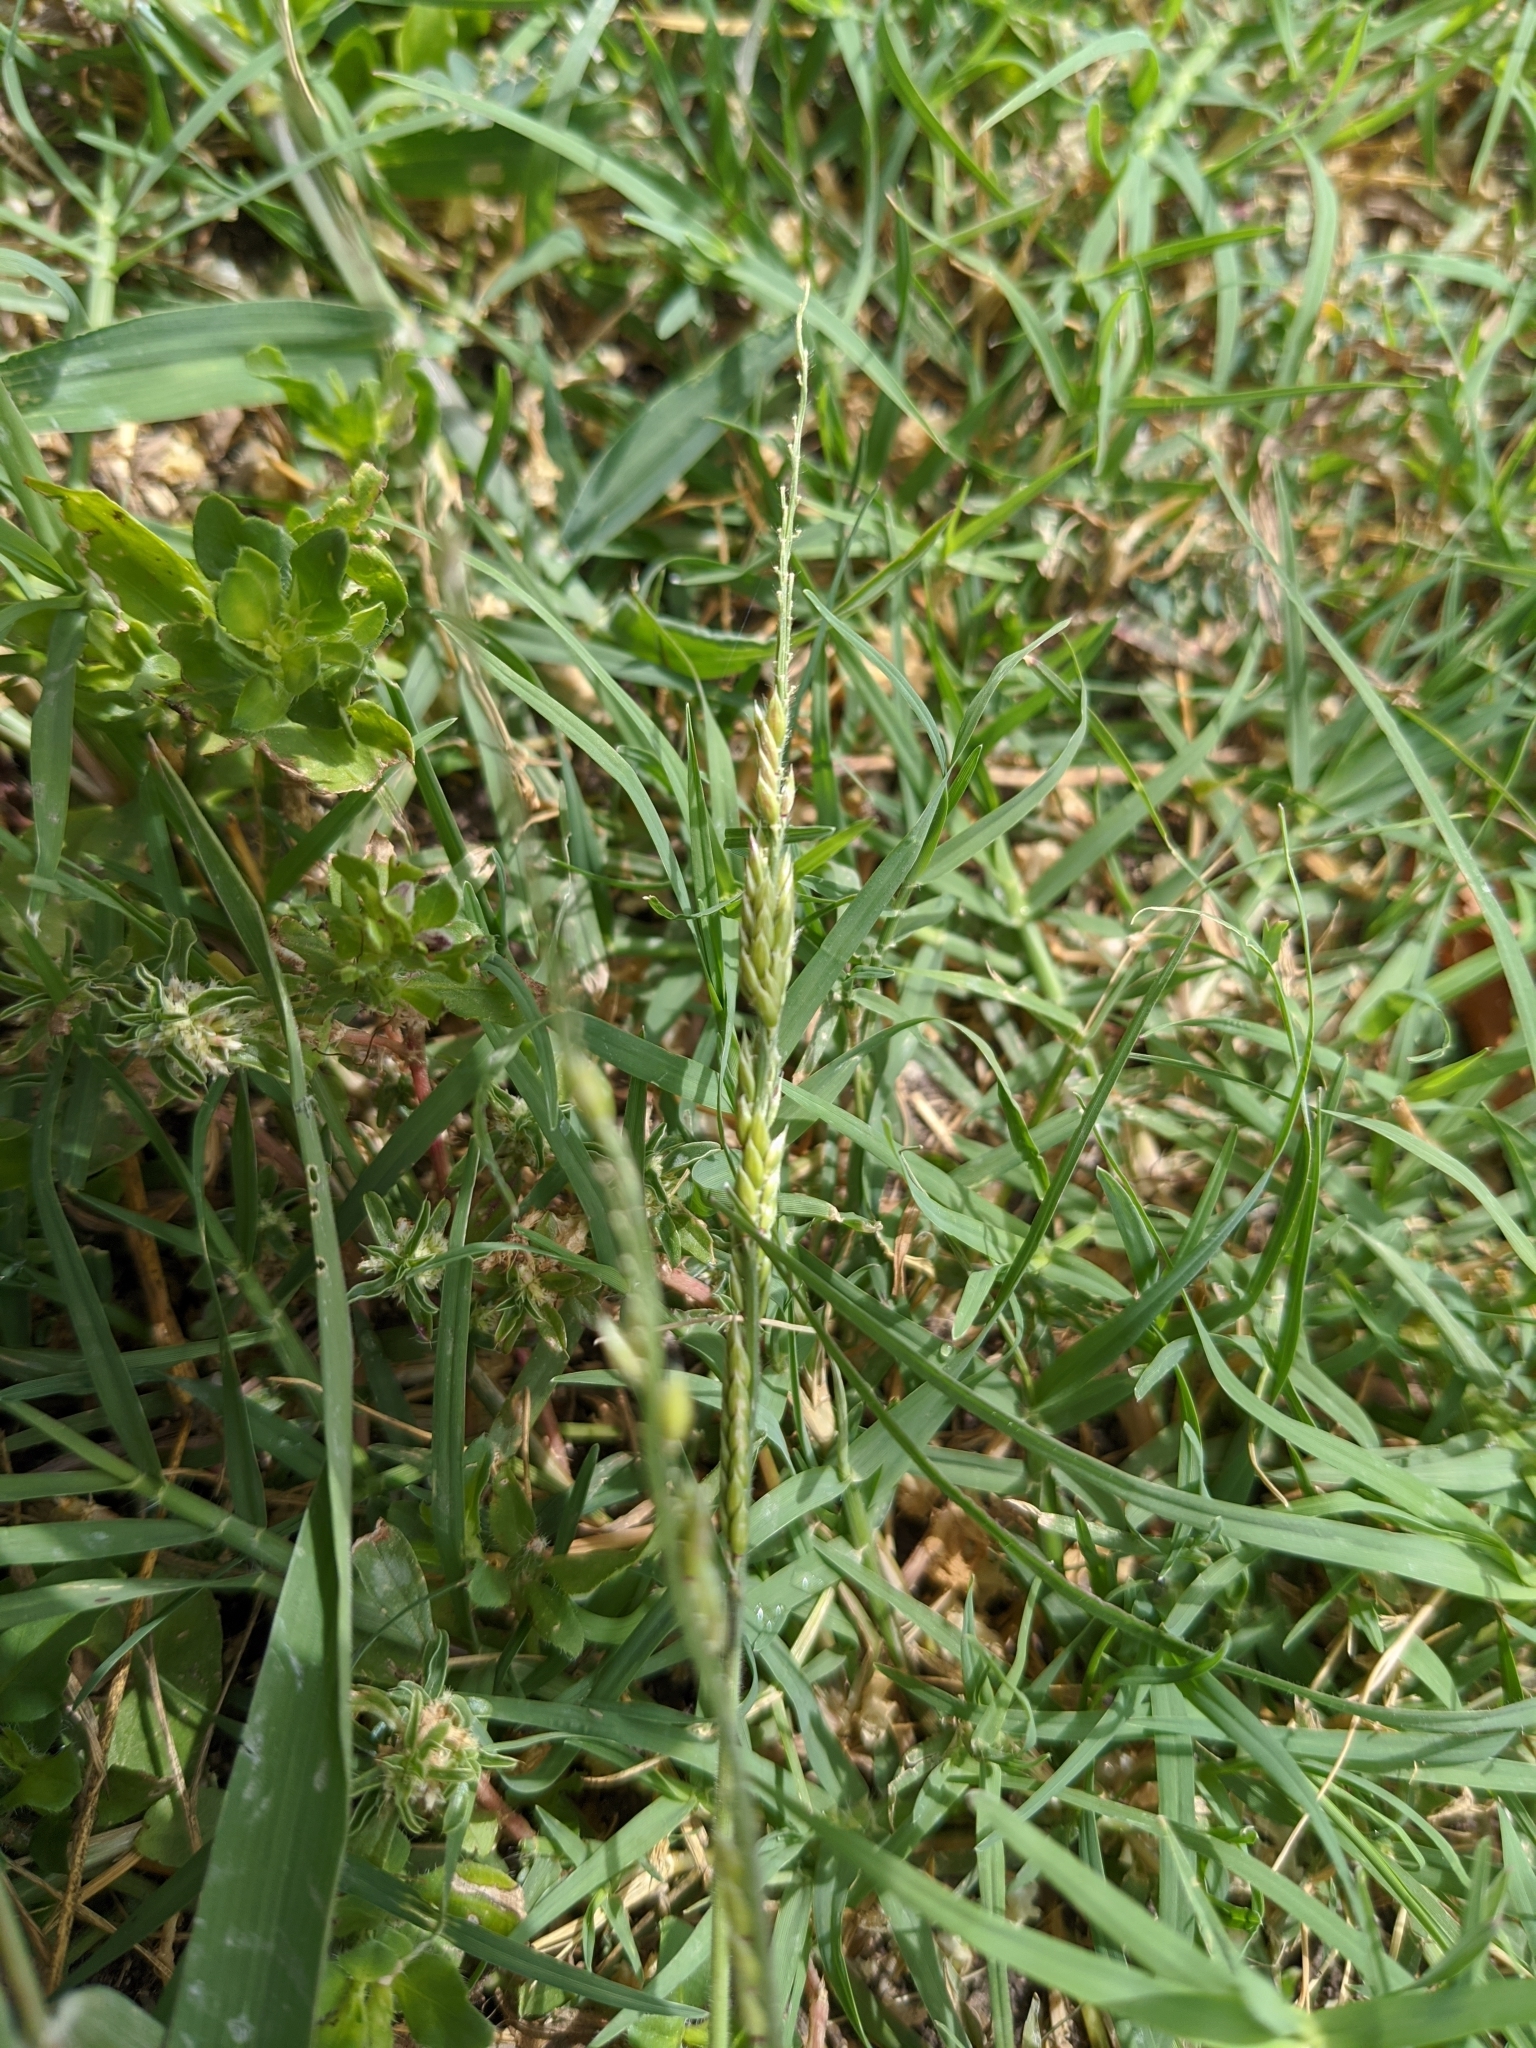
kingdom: Plantae
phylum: Tracheophyta
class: Liliopsida
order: Poales
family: Poaceae
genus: Eriochloa
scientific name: Eriochloa contracta
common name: Prairie cup grass
